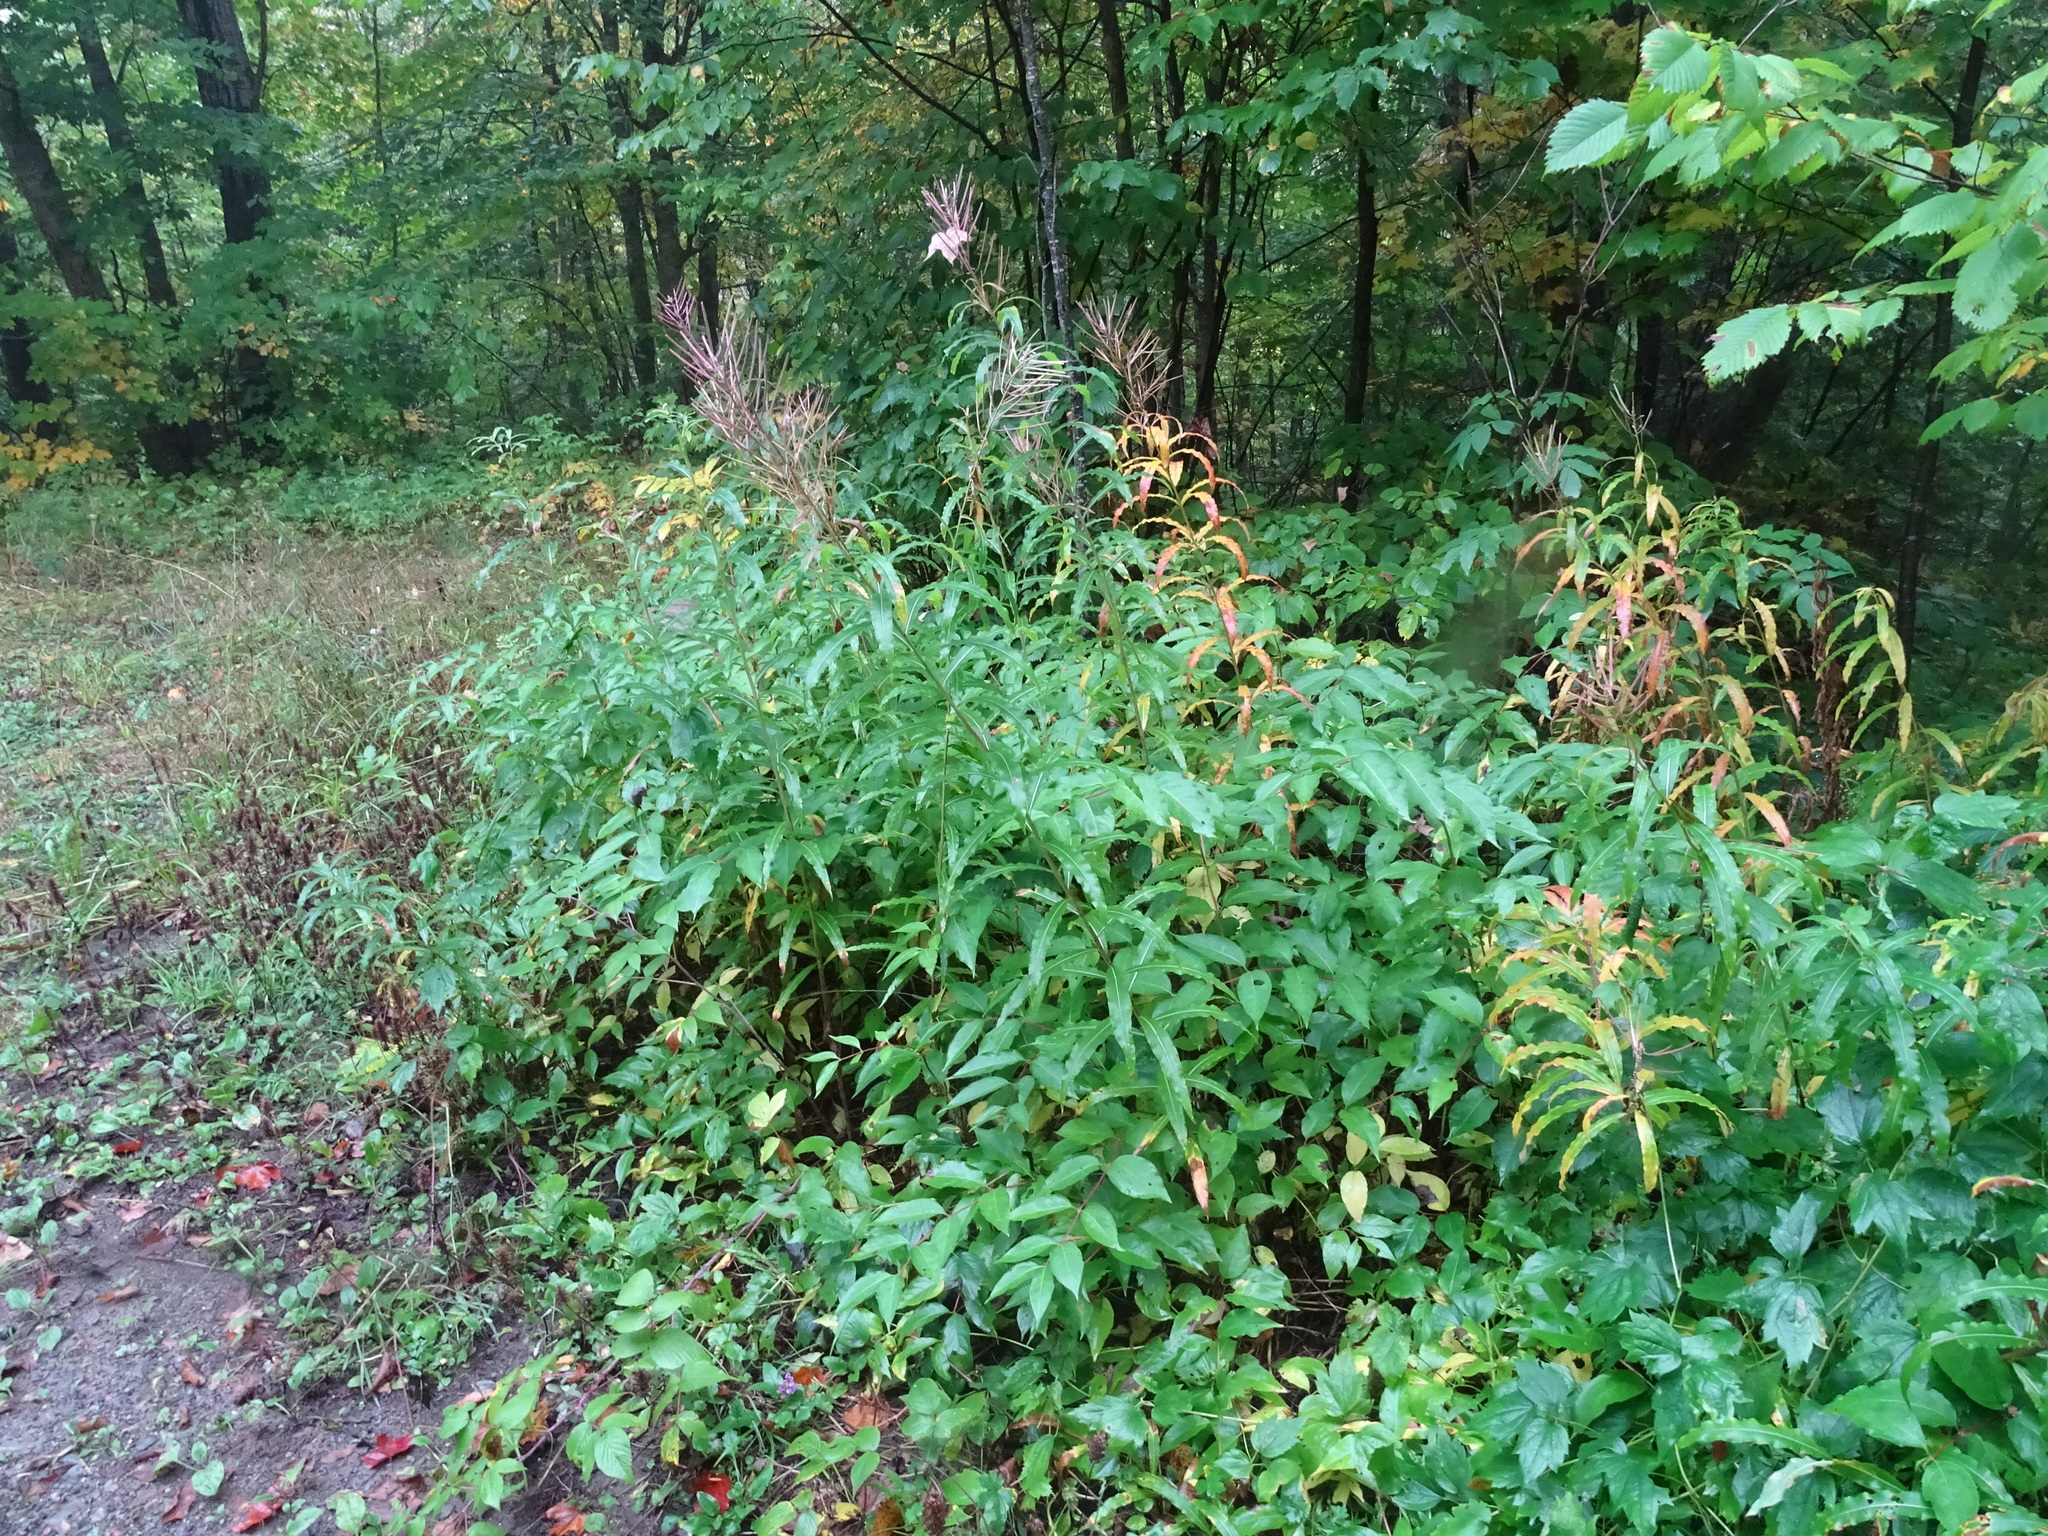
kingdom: Plantae
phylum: Tracheophyta
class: Magnoliopsida
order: Myrtales
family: Onagraceae
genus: Chamaenerion
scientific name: Chamaenerion angustifolium
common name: Fireweed
